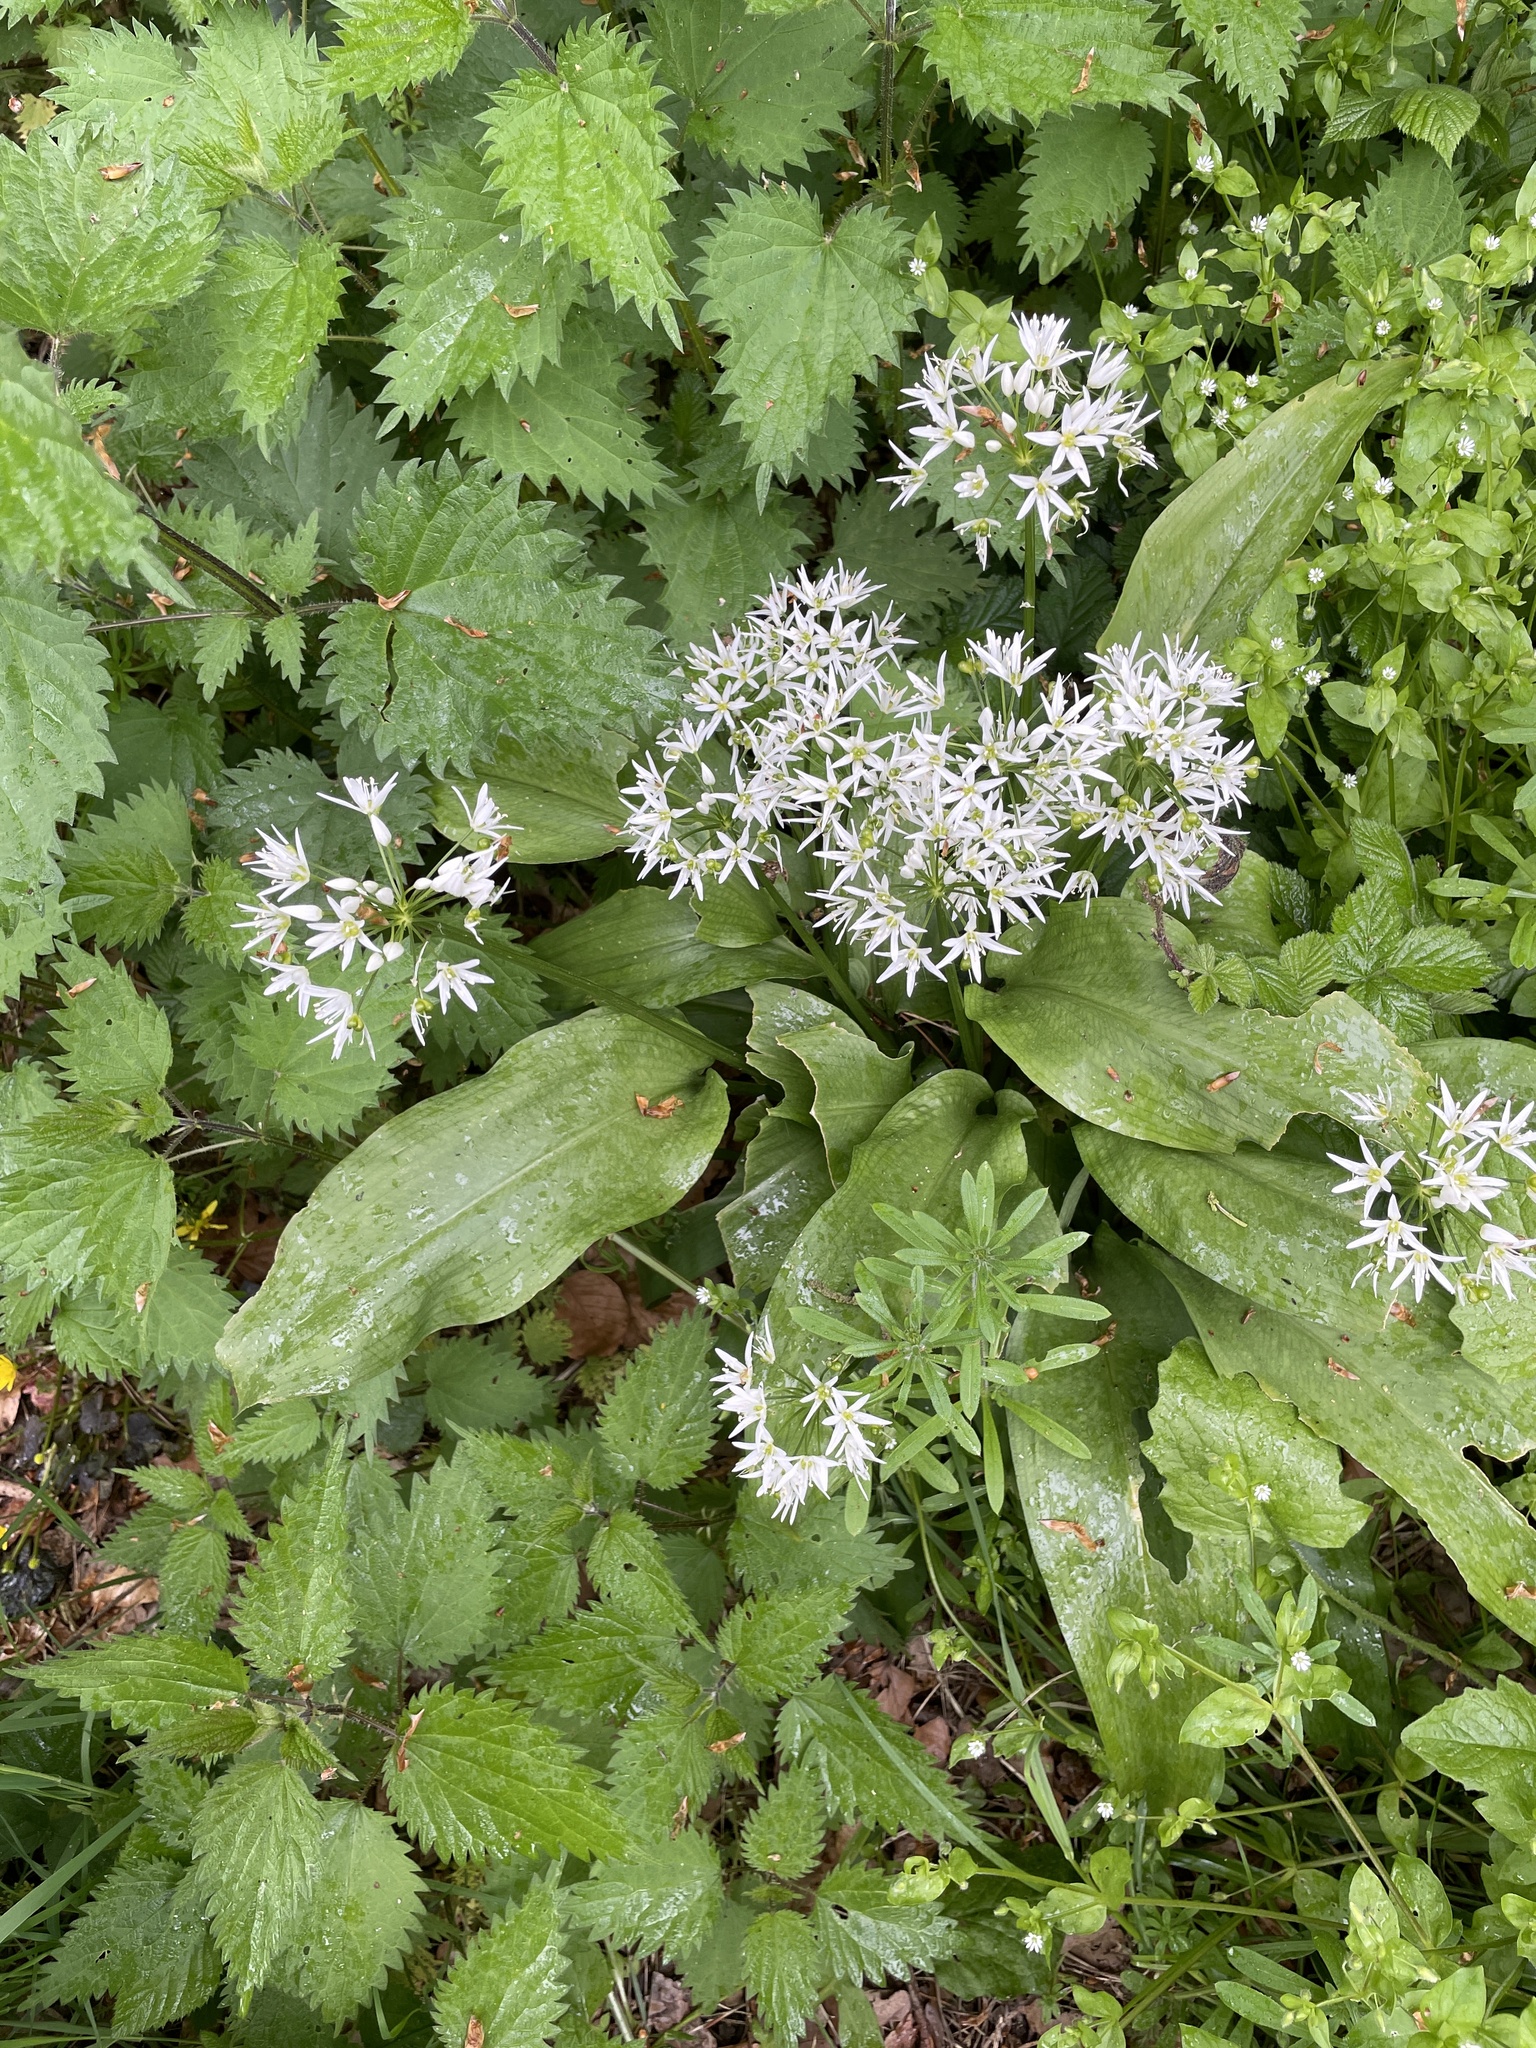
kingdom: Plantae
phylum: Tracheophyta
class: Liliopsida
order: Asparagales
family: Amaryllidaceae
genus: Allium
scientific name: Allium ursinum
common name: Ramsons
